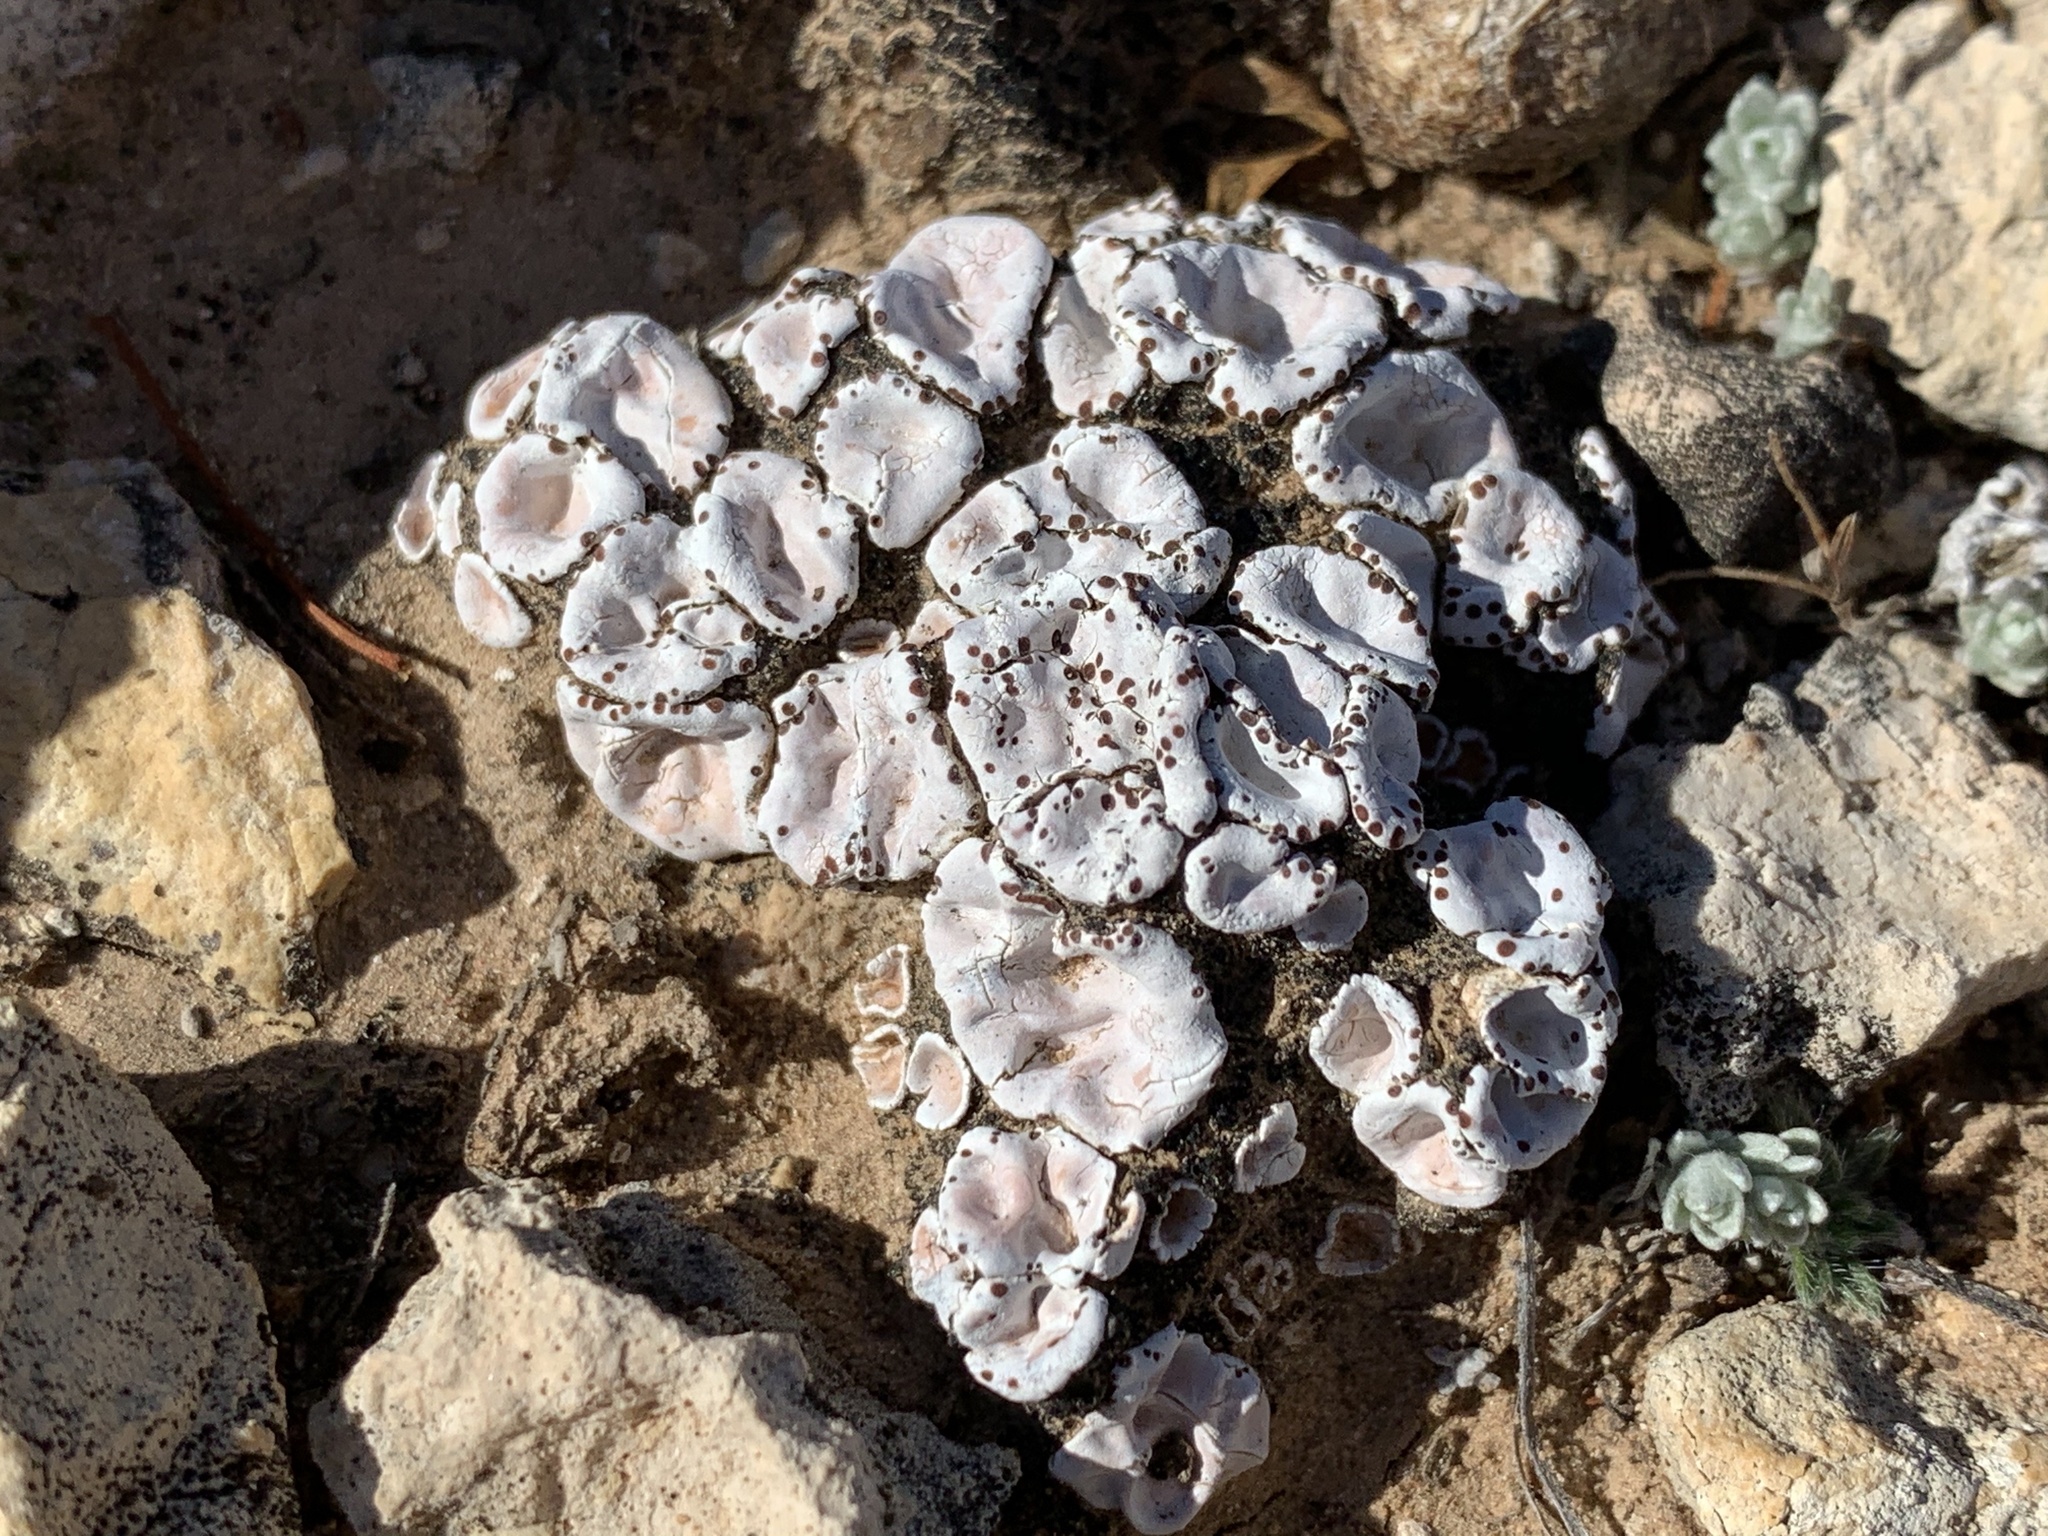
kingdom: Fungi
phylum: Ascomycota
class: Lecanoromycetes
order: Lecanorales
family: Psoraceae
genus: Psora
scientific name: Psora crenata
